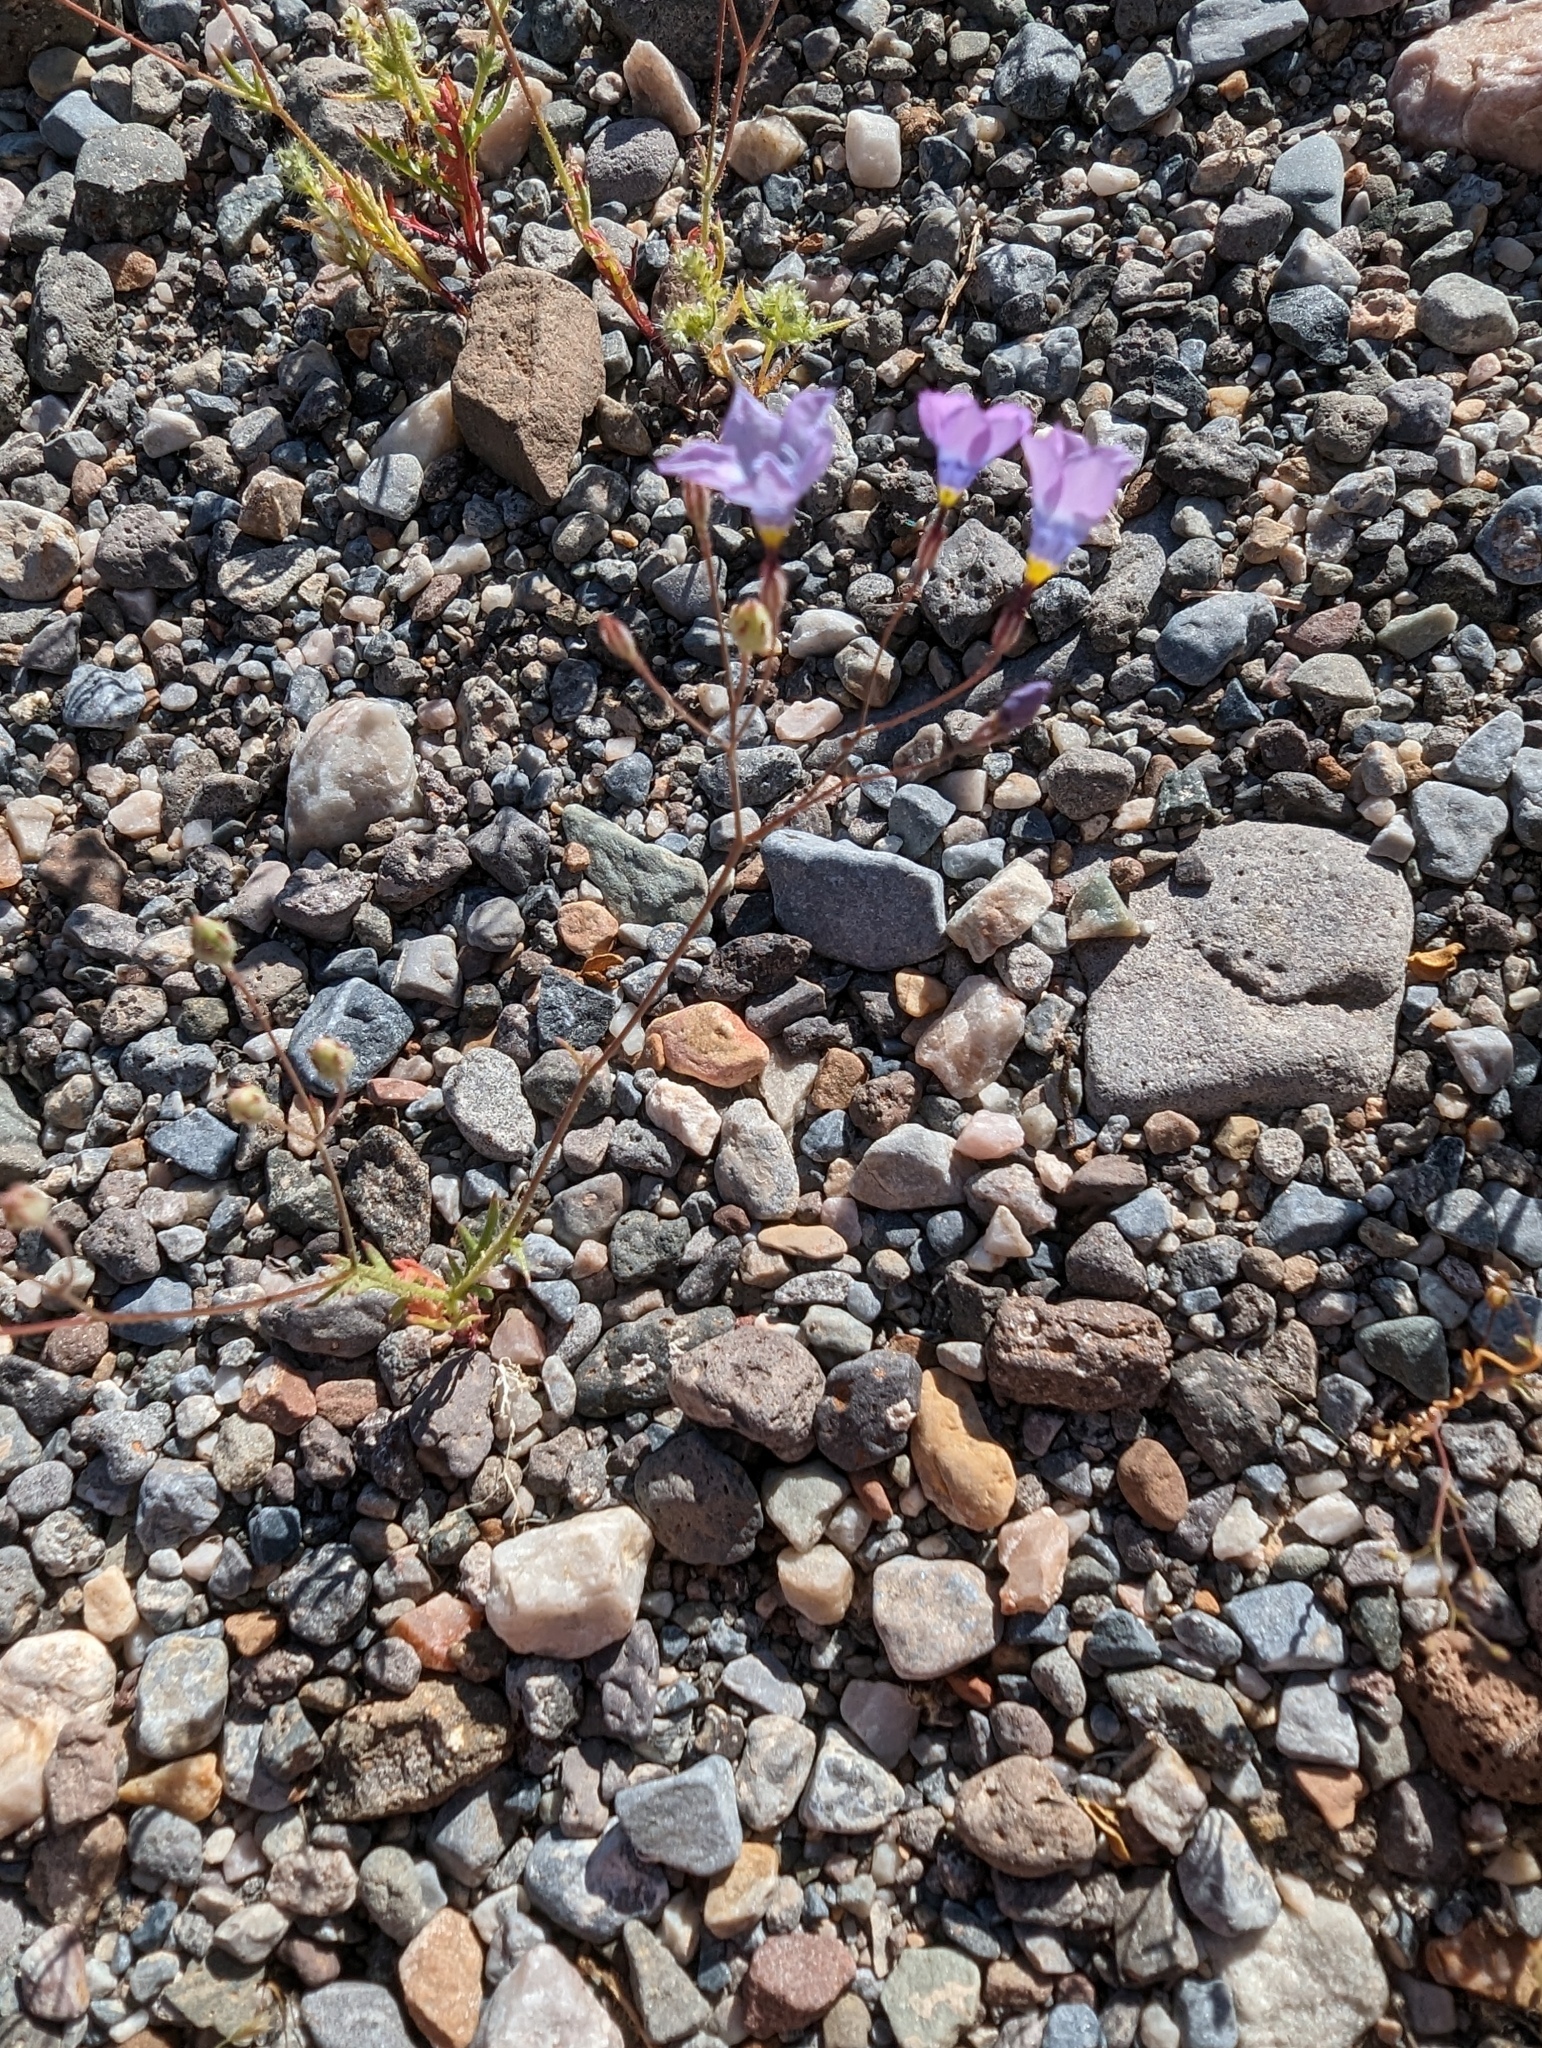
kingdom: Plantae
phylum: Tracheophyta
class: Magnoliopsida
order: Ericales
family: Polemoniaceae
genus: Gilia
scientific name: Gilia cana
